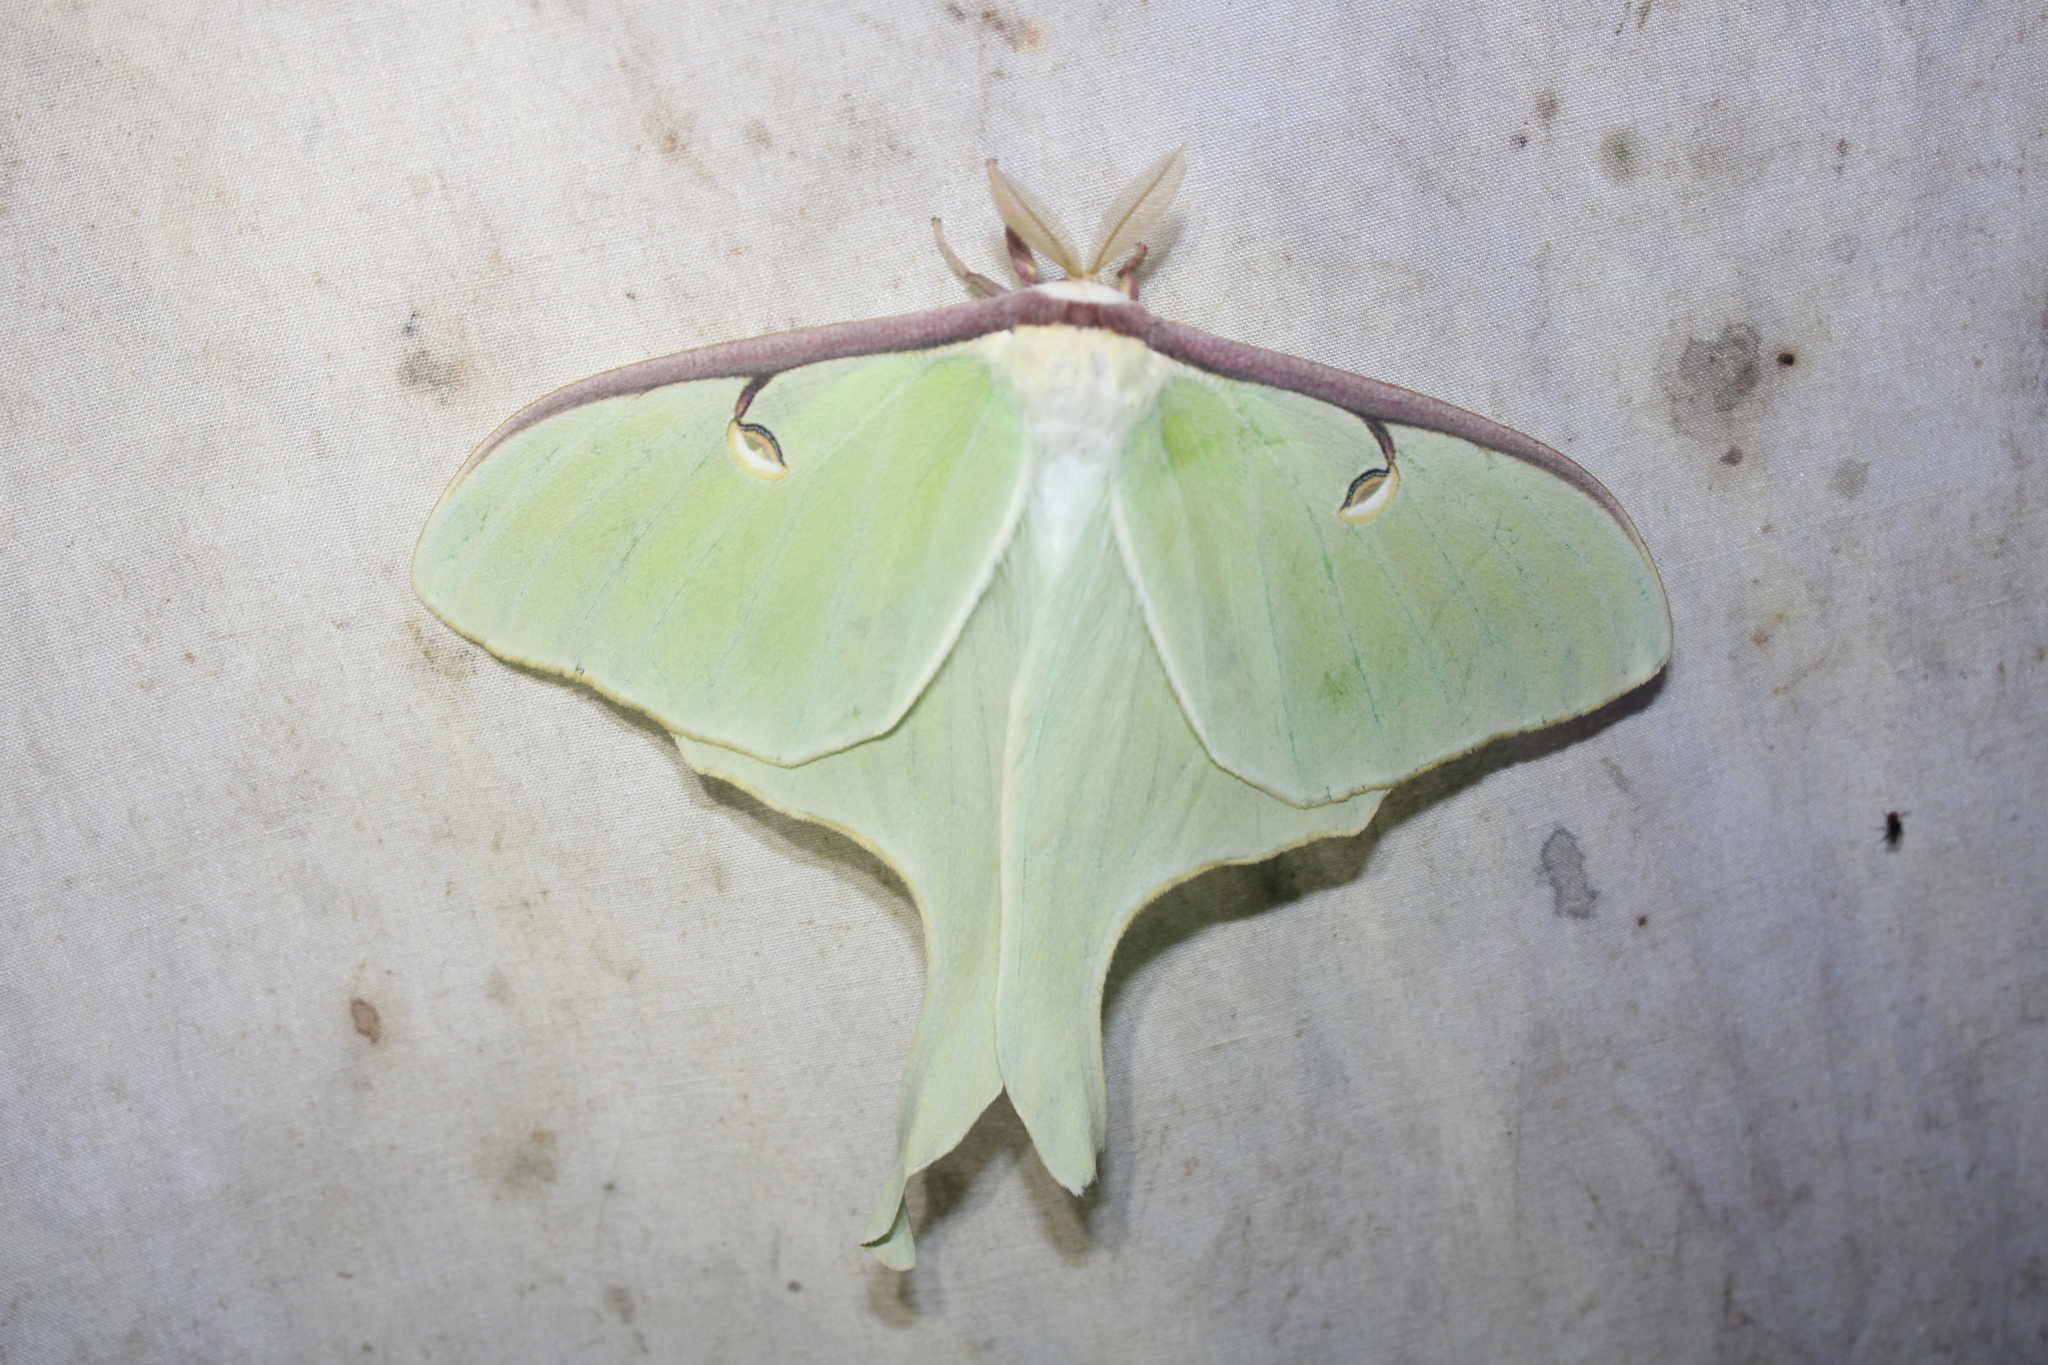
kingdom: Animalia
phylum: Arthropoda
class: Insecta
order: Lepidoptera
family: Saturniidae
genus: Actias
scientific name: Actias luna
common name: Luna moth
